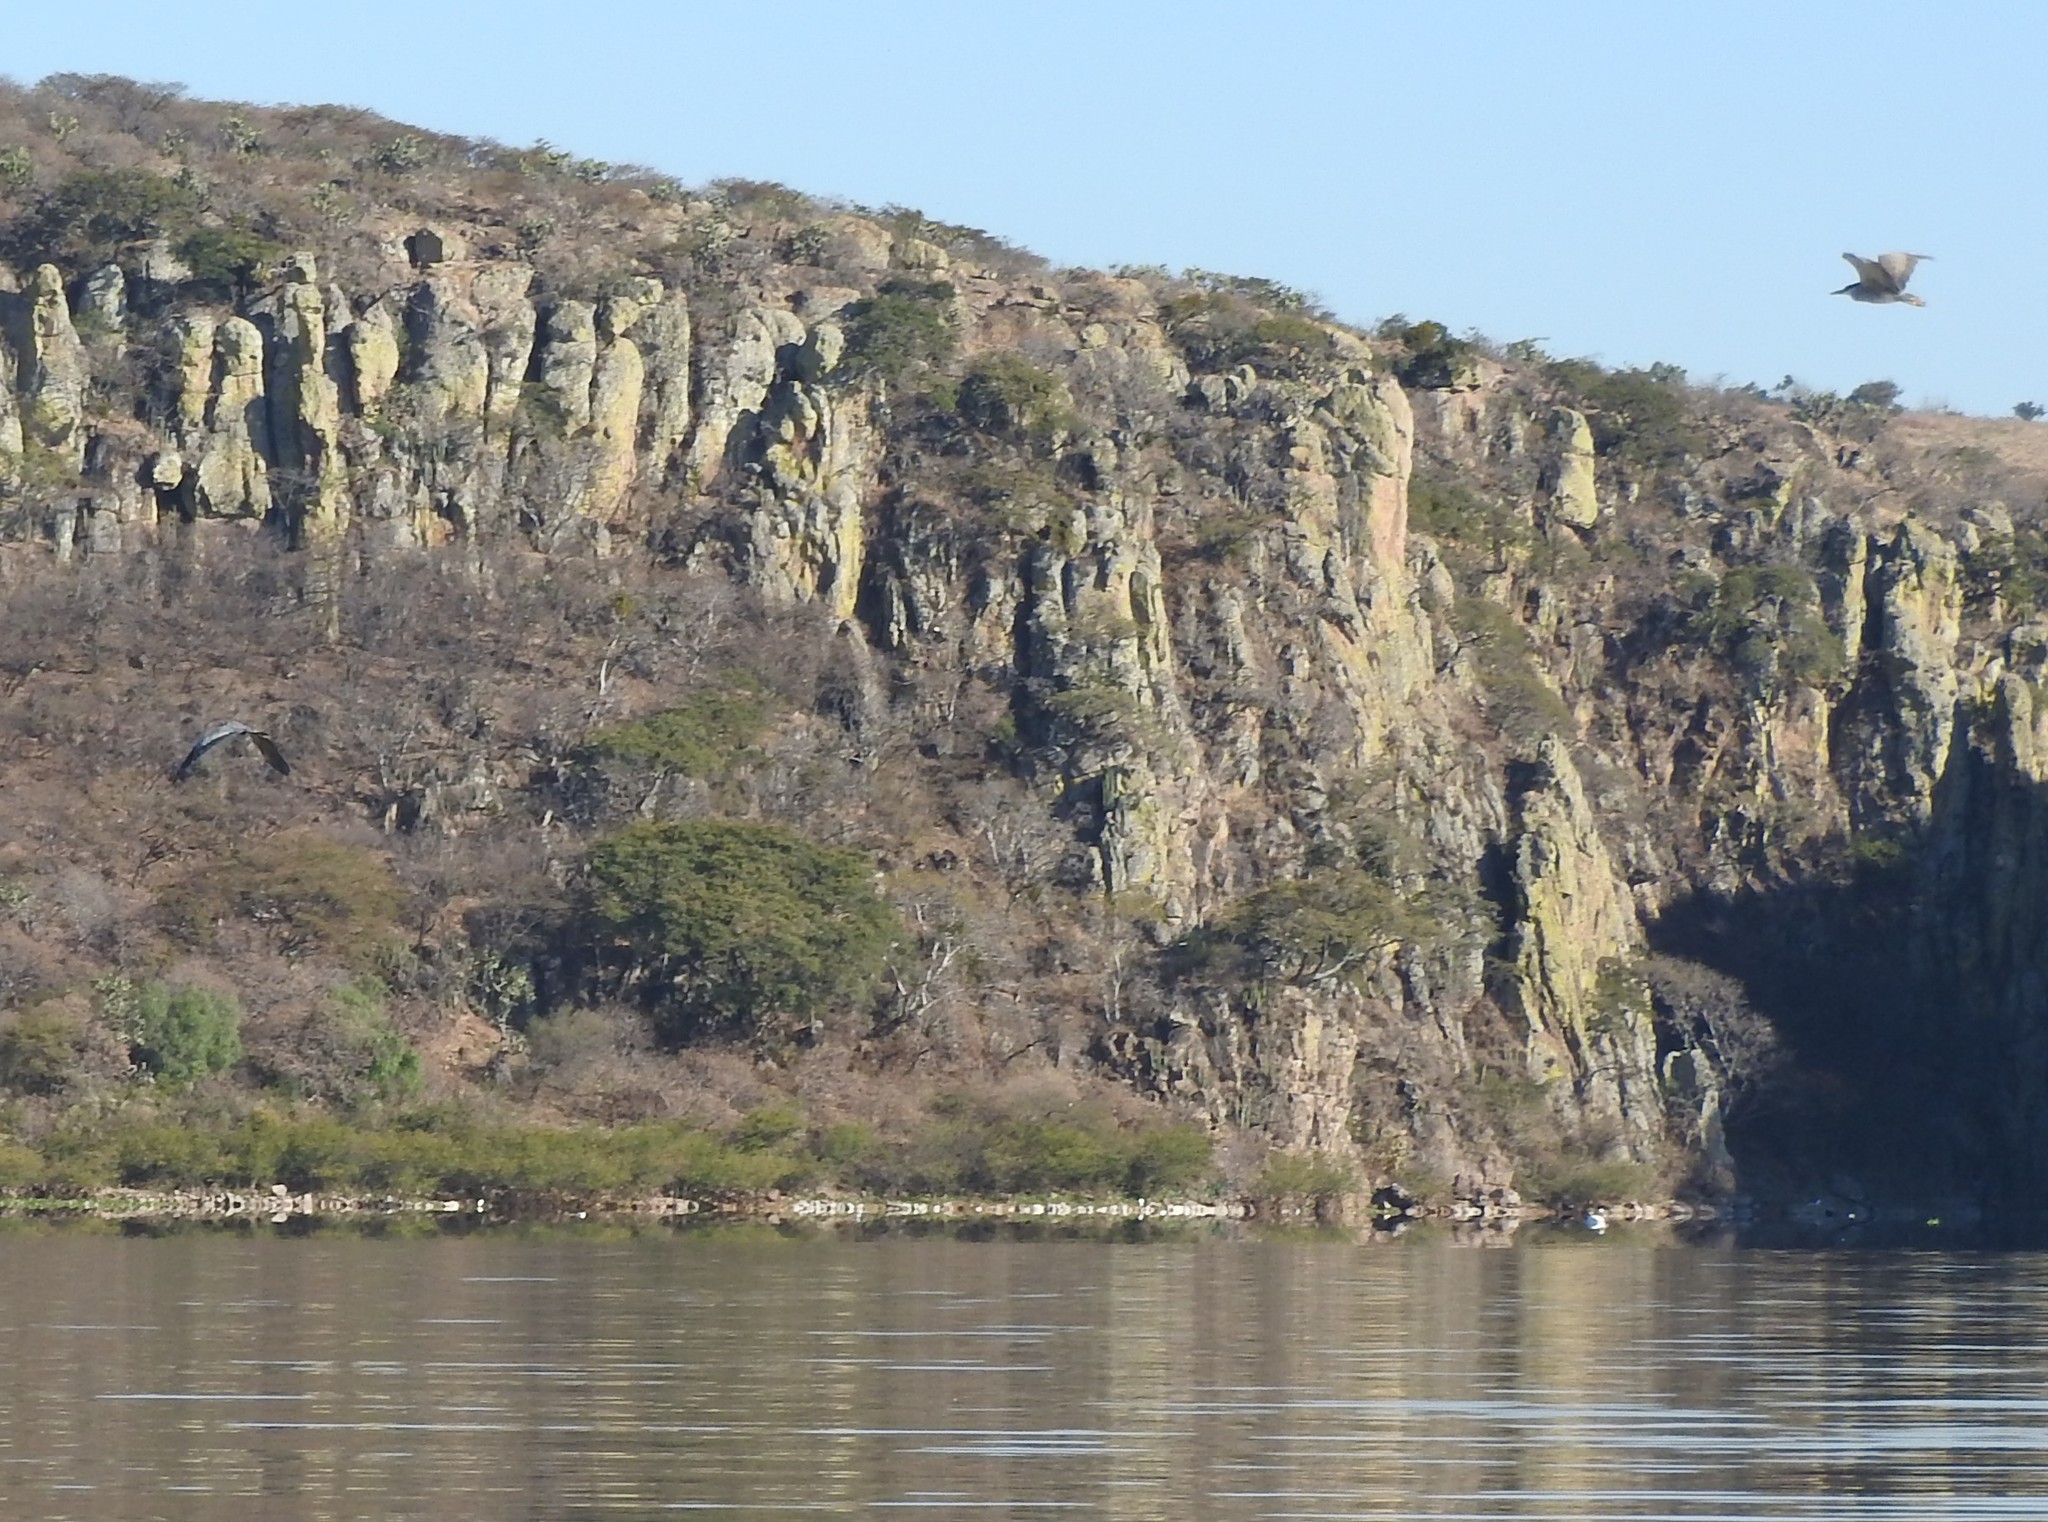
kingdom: Animalia
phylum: Chordata
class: Aves
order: Pelecaniformes
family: Ardeidae
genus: Nycticorax
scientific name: Nycticorax nycticorax
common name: Black-crowned night heron
